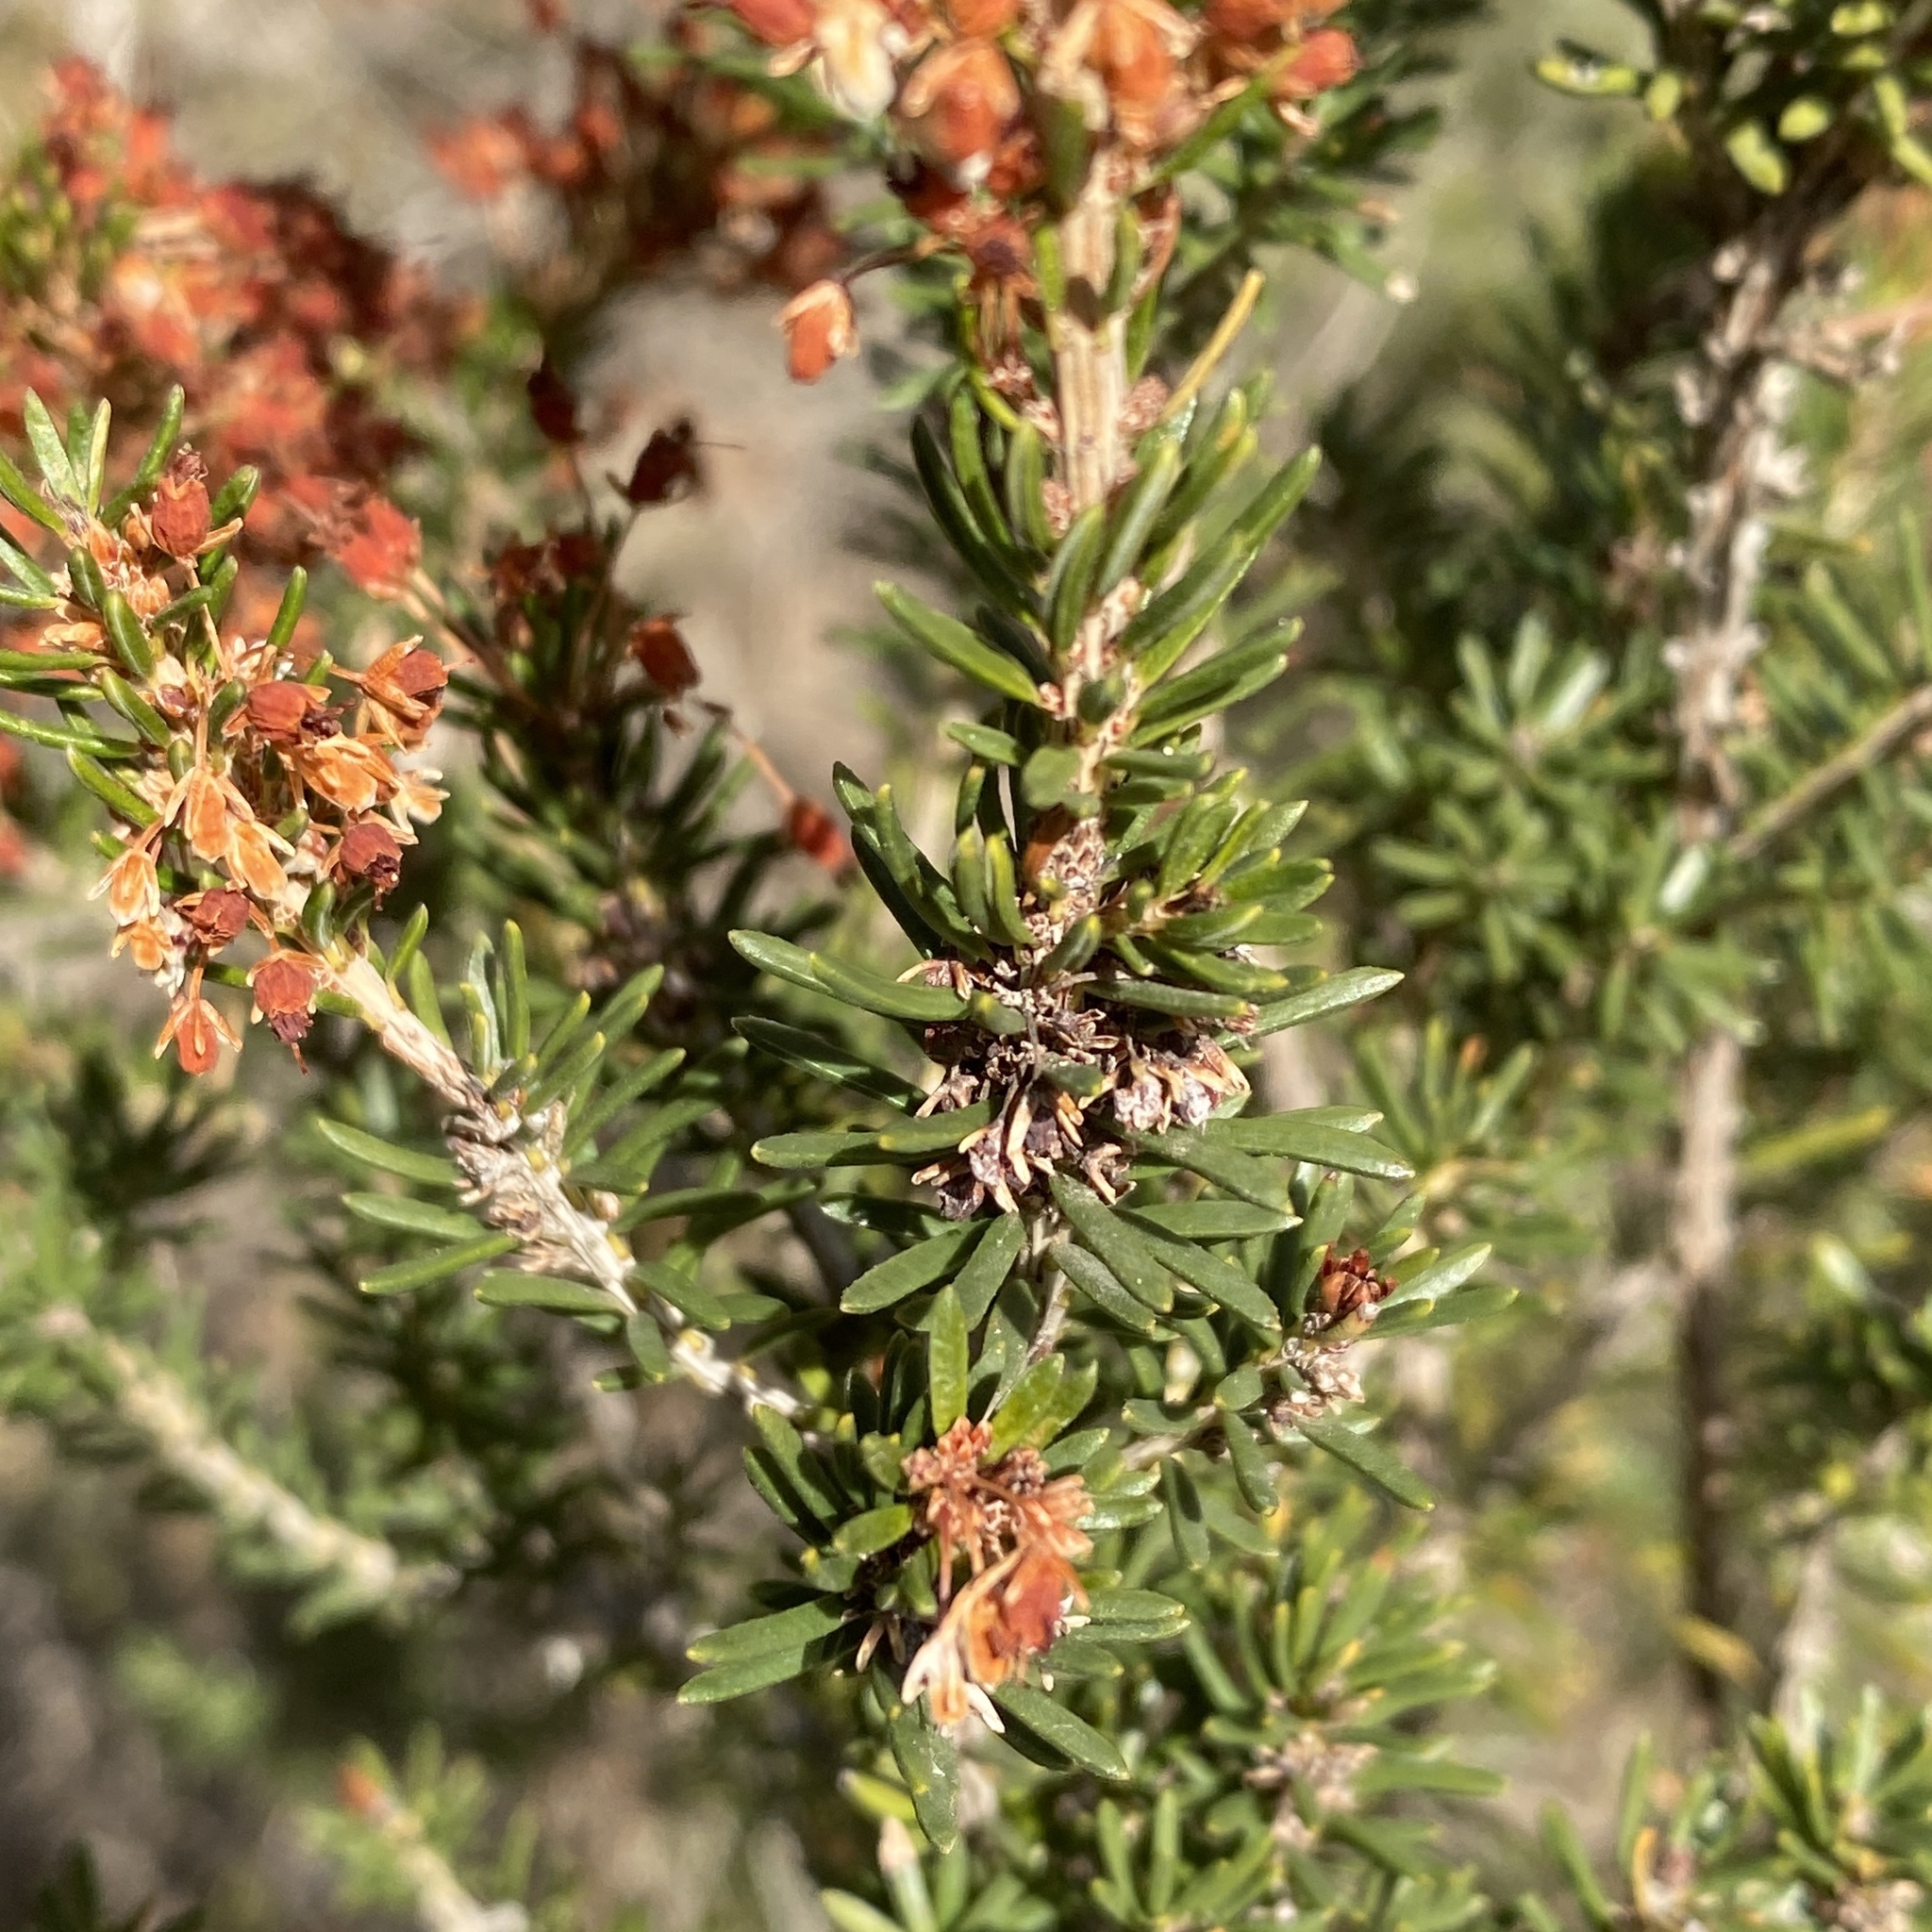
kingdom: Plantae
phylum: Tracheophyta
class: Magnoliopsida
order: Ericales
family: Ericaceae
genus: Erica
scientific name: Erica multiflora
